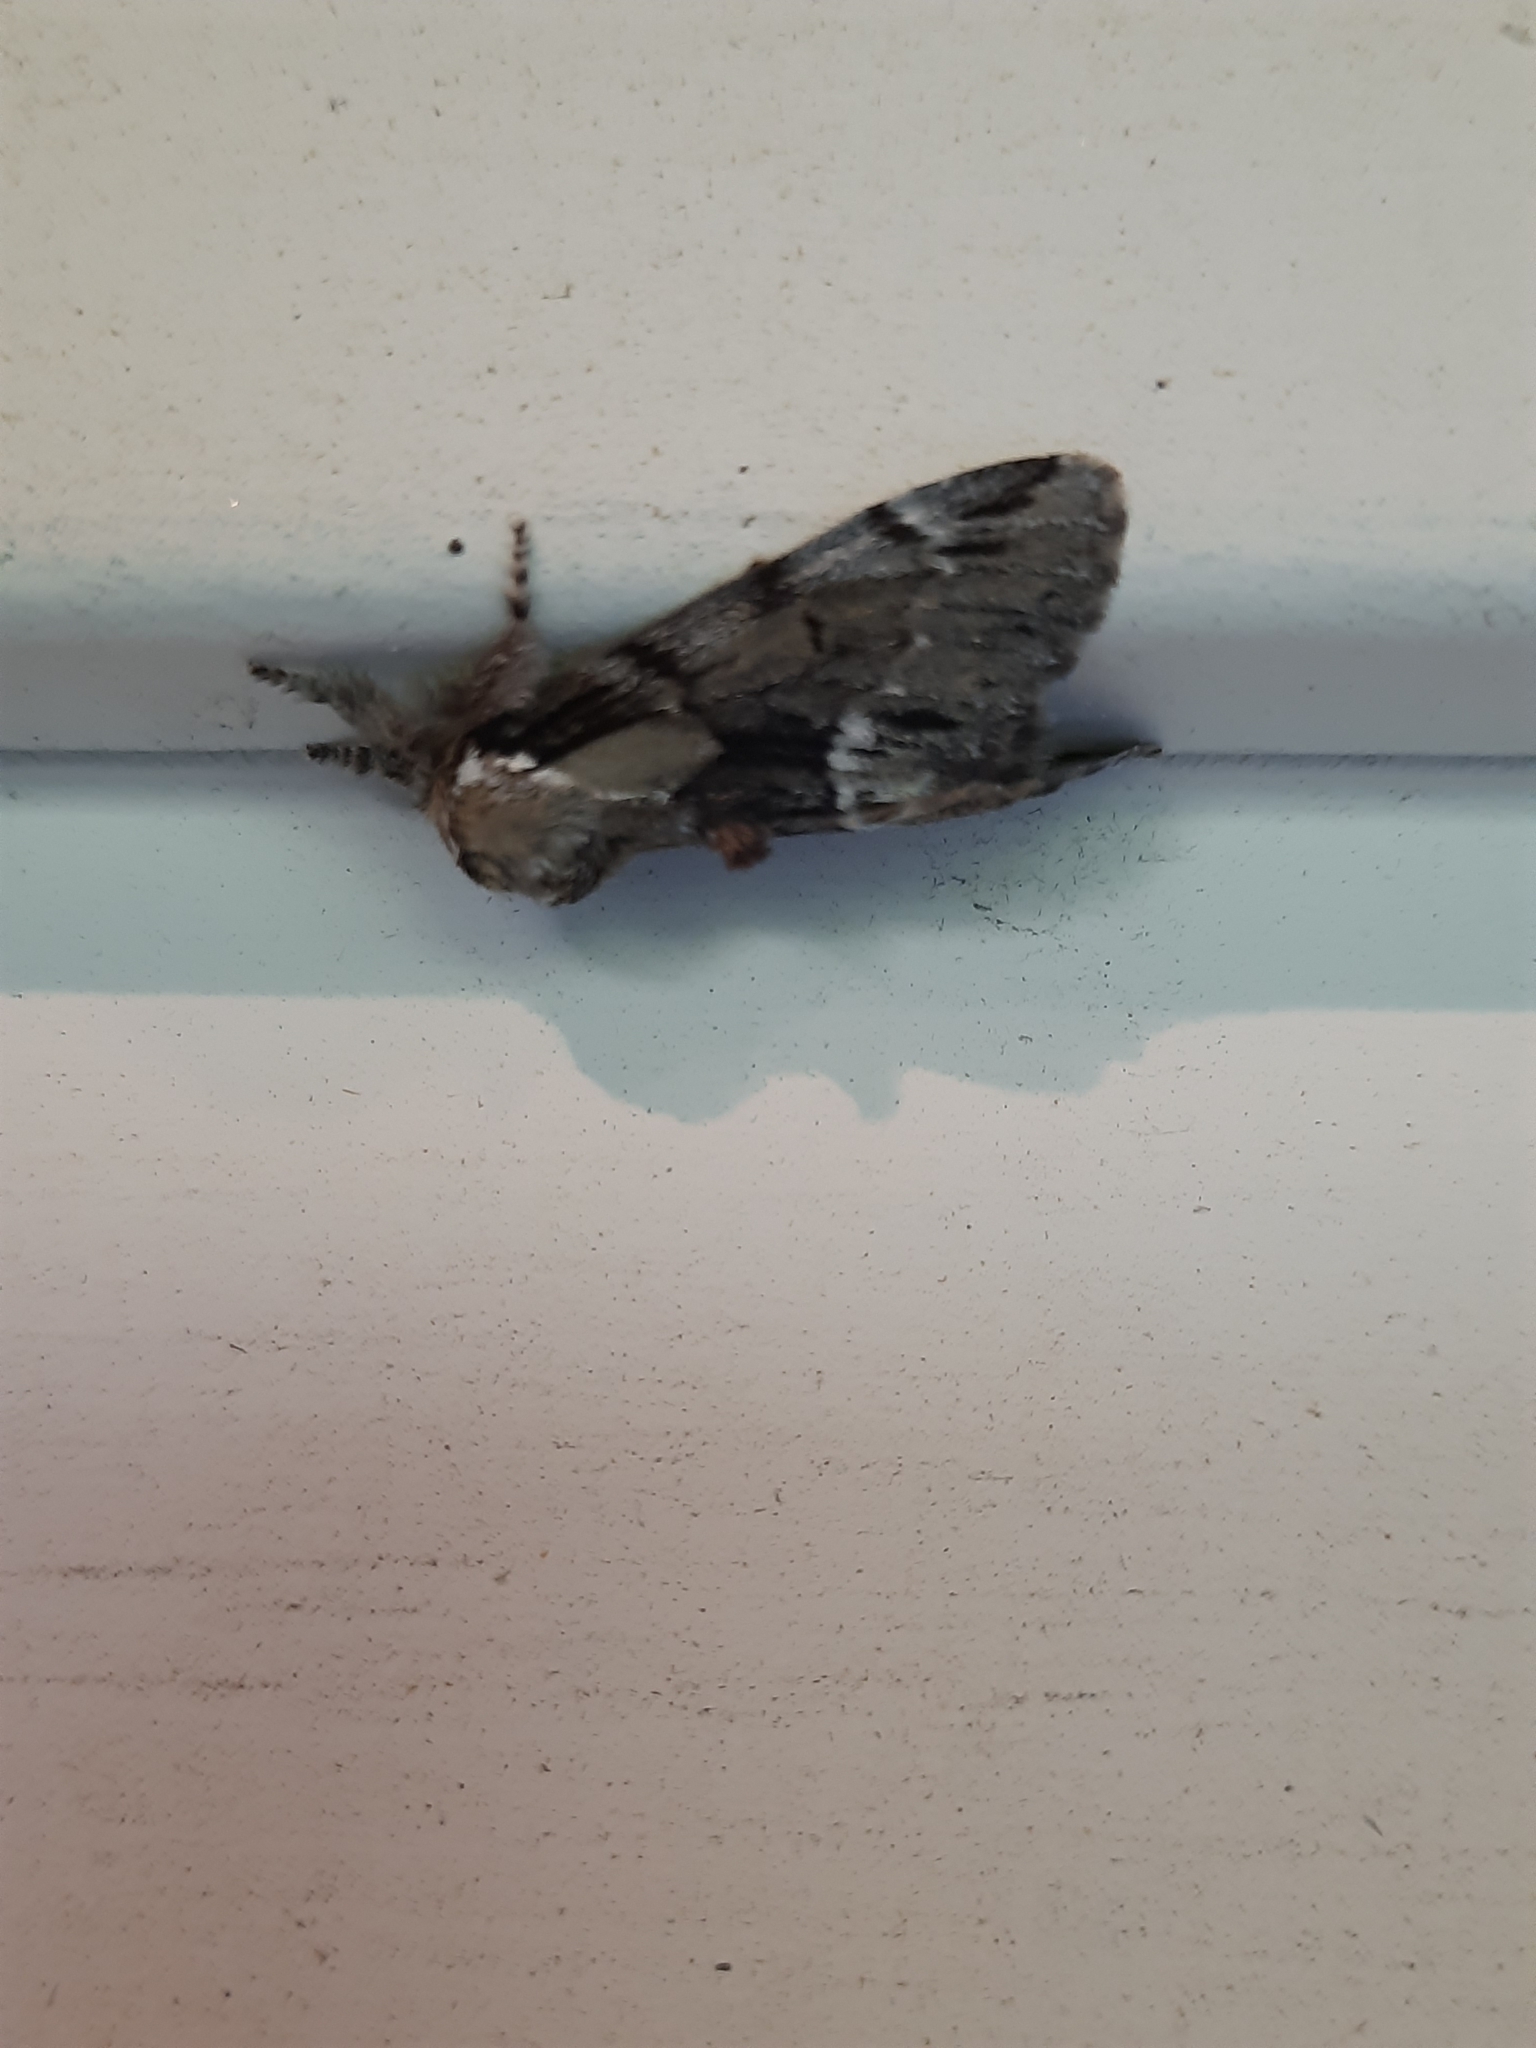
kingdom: Animalia
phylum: Arthropoda
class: Insecta
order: Lepidoptera
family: Notodontidae
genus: Paraeschra
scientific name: Paraeschra georgica
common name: Georgian prominent
